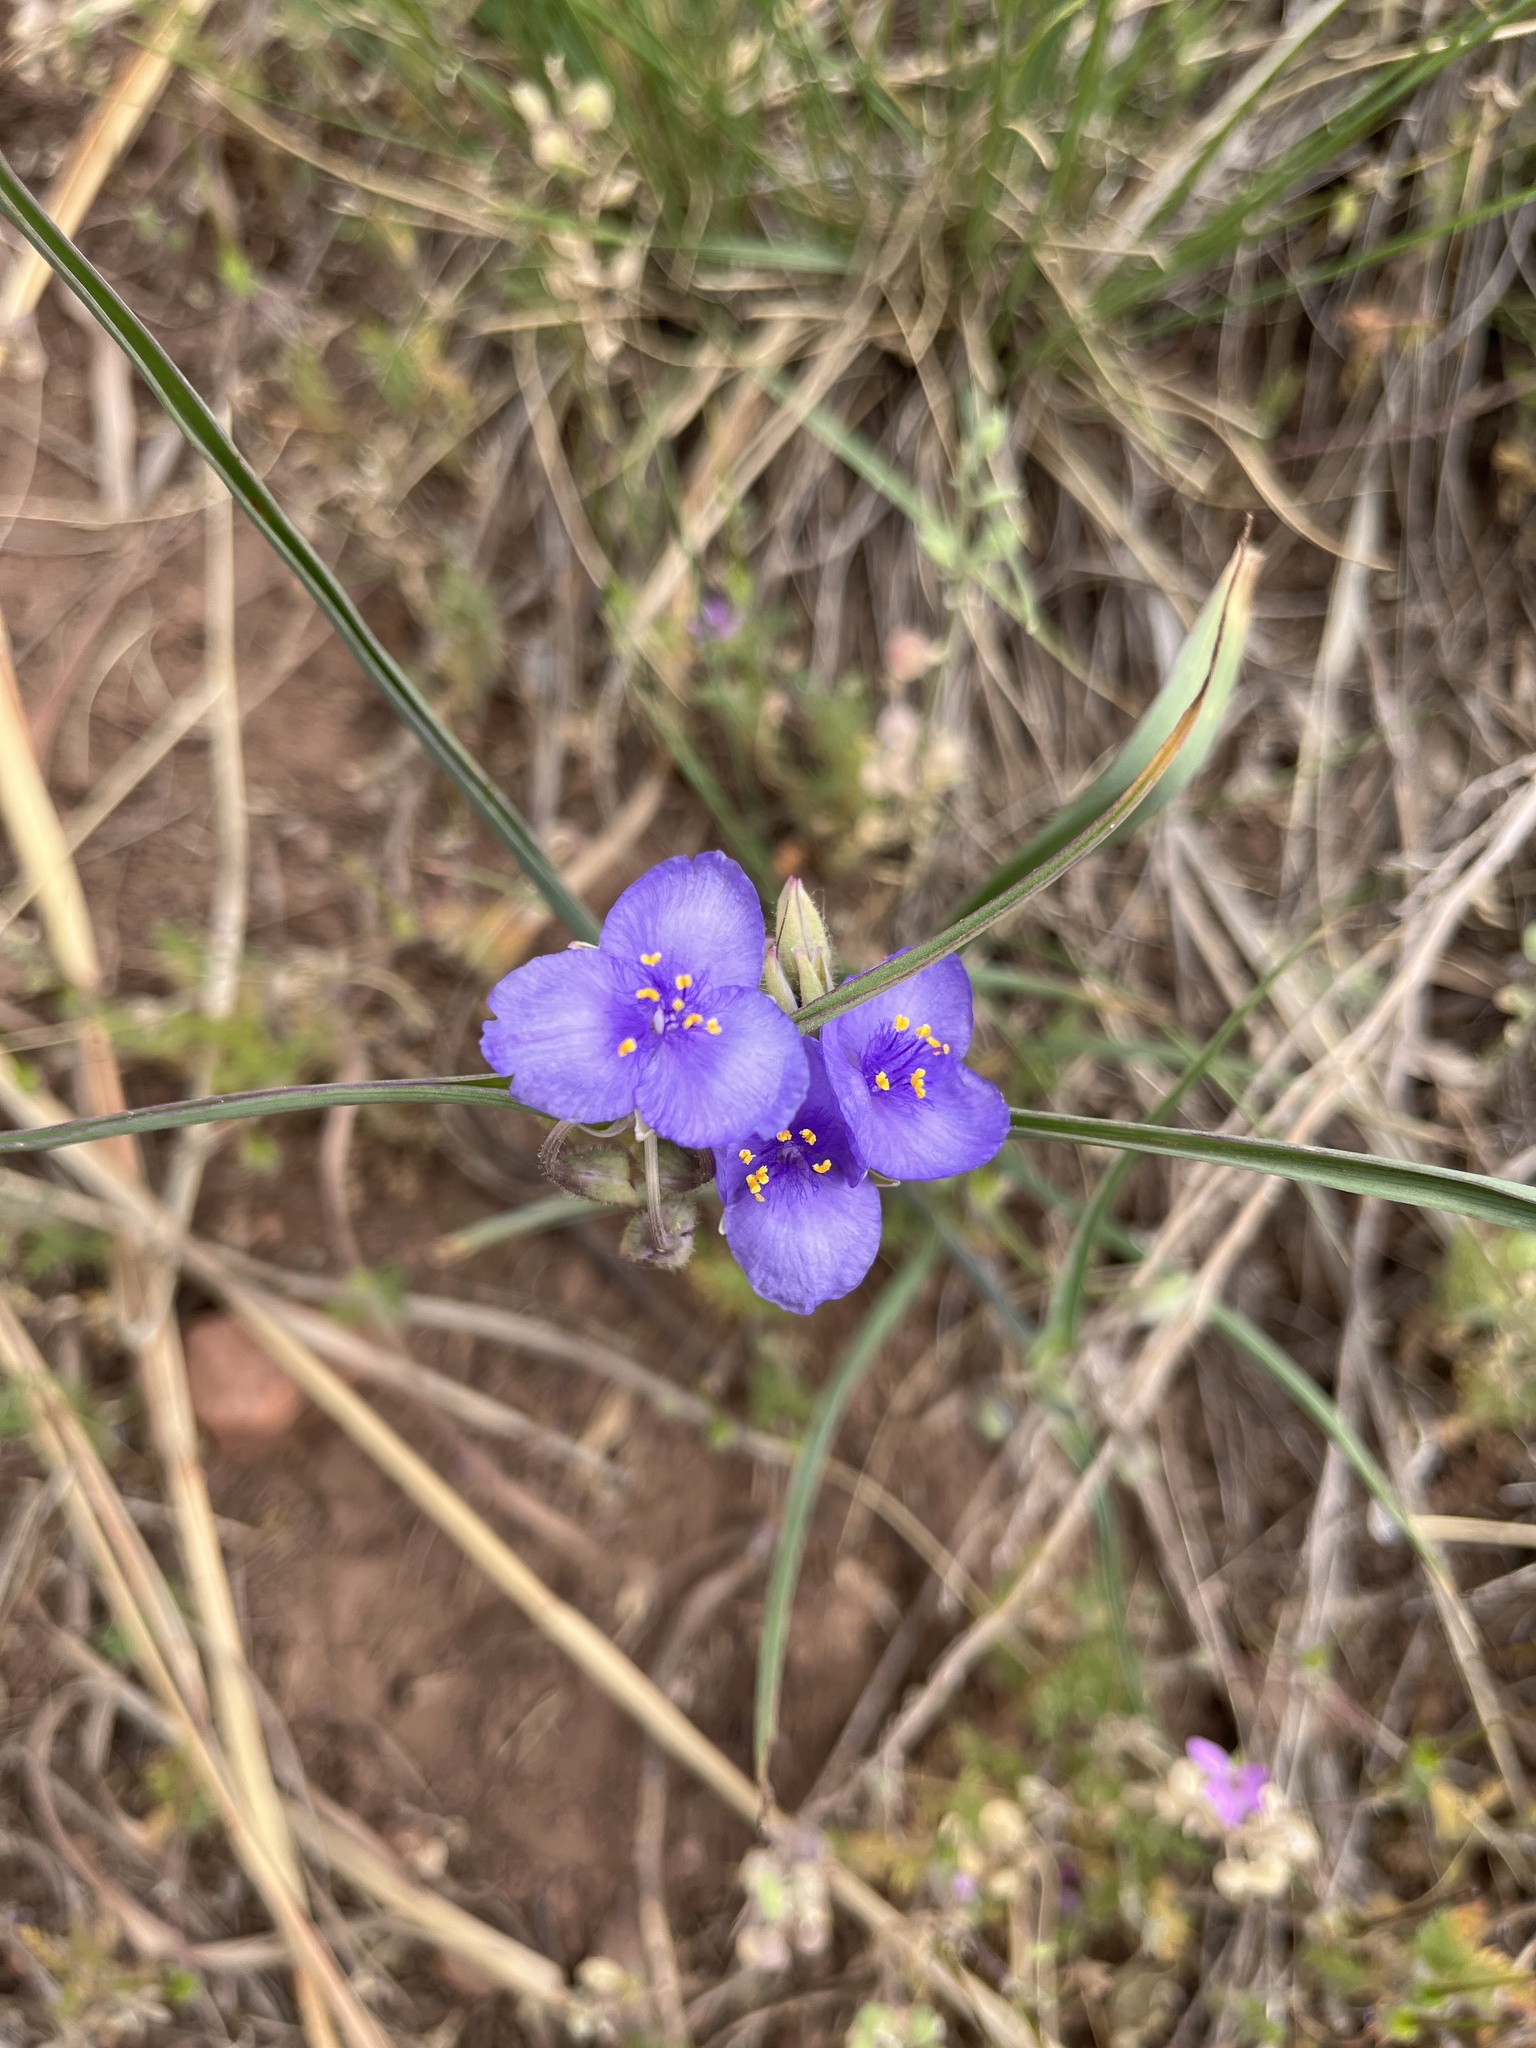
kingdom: Plantae
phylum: Tracheophyta
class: Liliopsida
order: Commelinales
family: Commelinaceae
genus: Tradescantia
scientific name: Tradescantia occidentalis
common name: Prairie spiderwort
